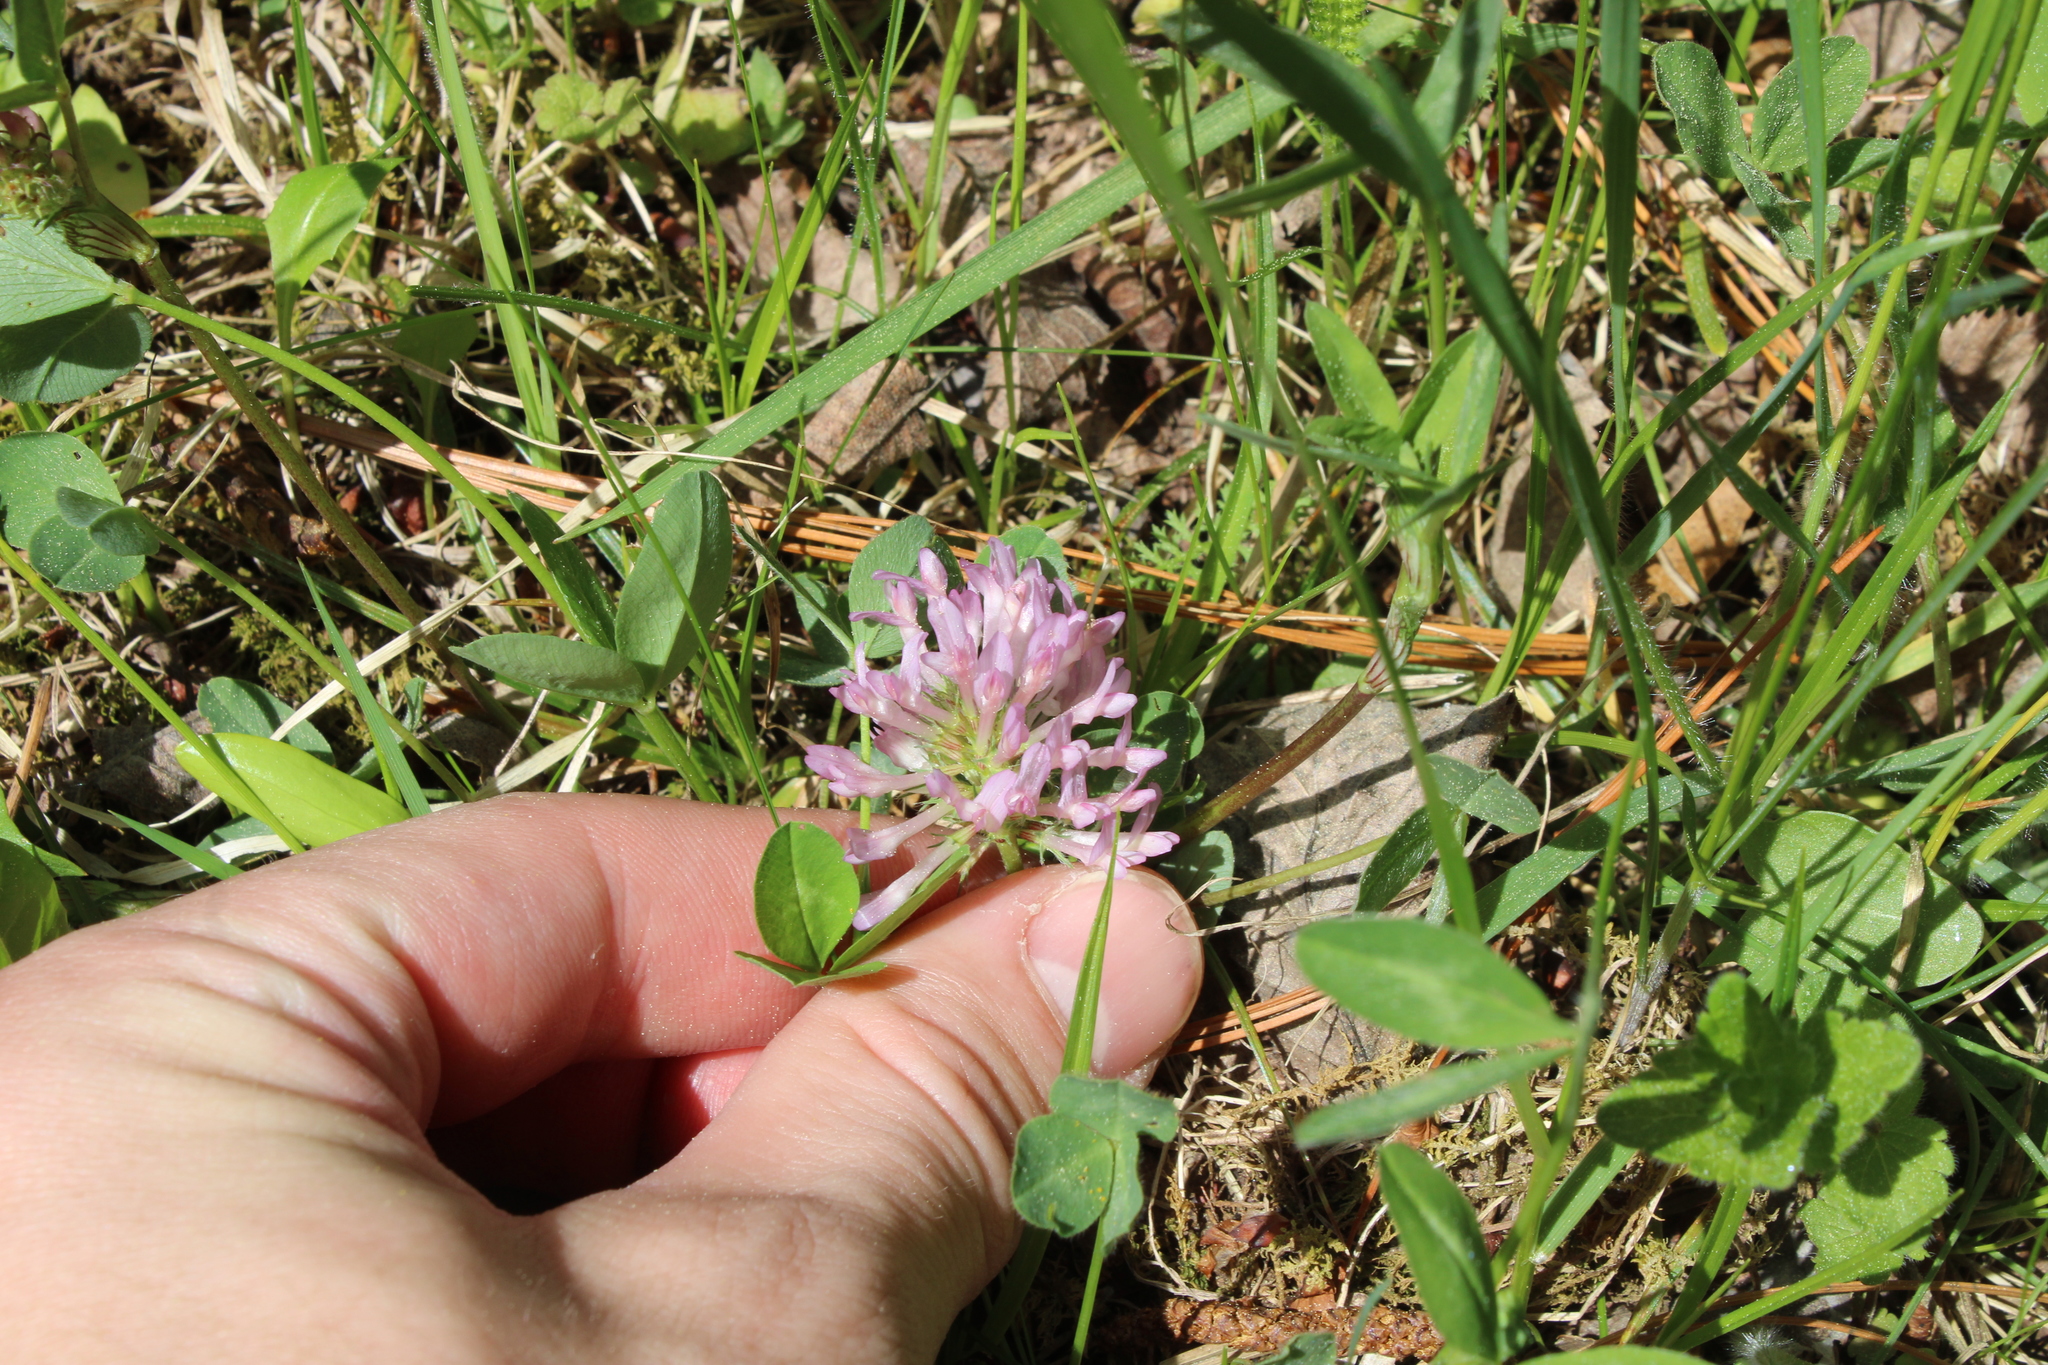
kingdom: Plantae
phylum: Tracheophyta
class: Magnoliopsida
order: Fabales
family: Fabaceae
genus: Trifolium
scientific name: Trifolium pratense
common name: Red clover
